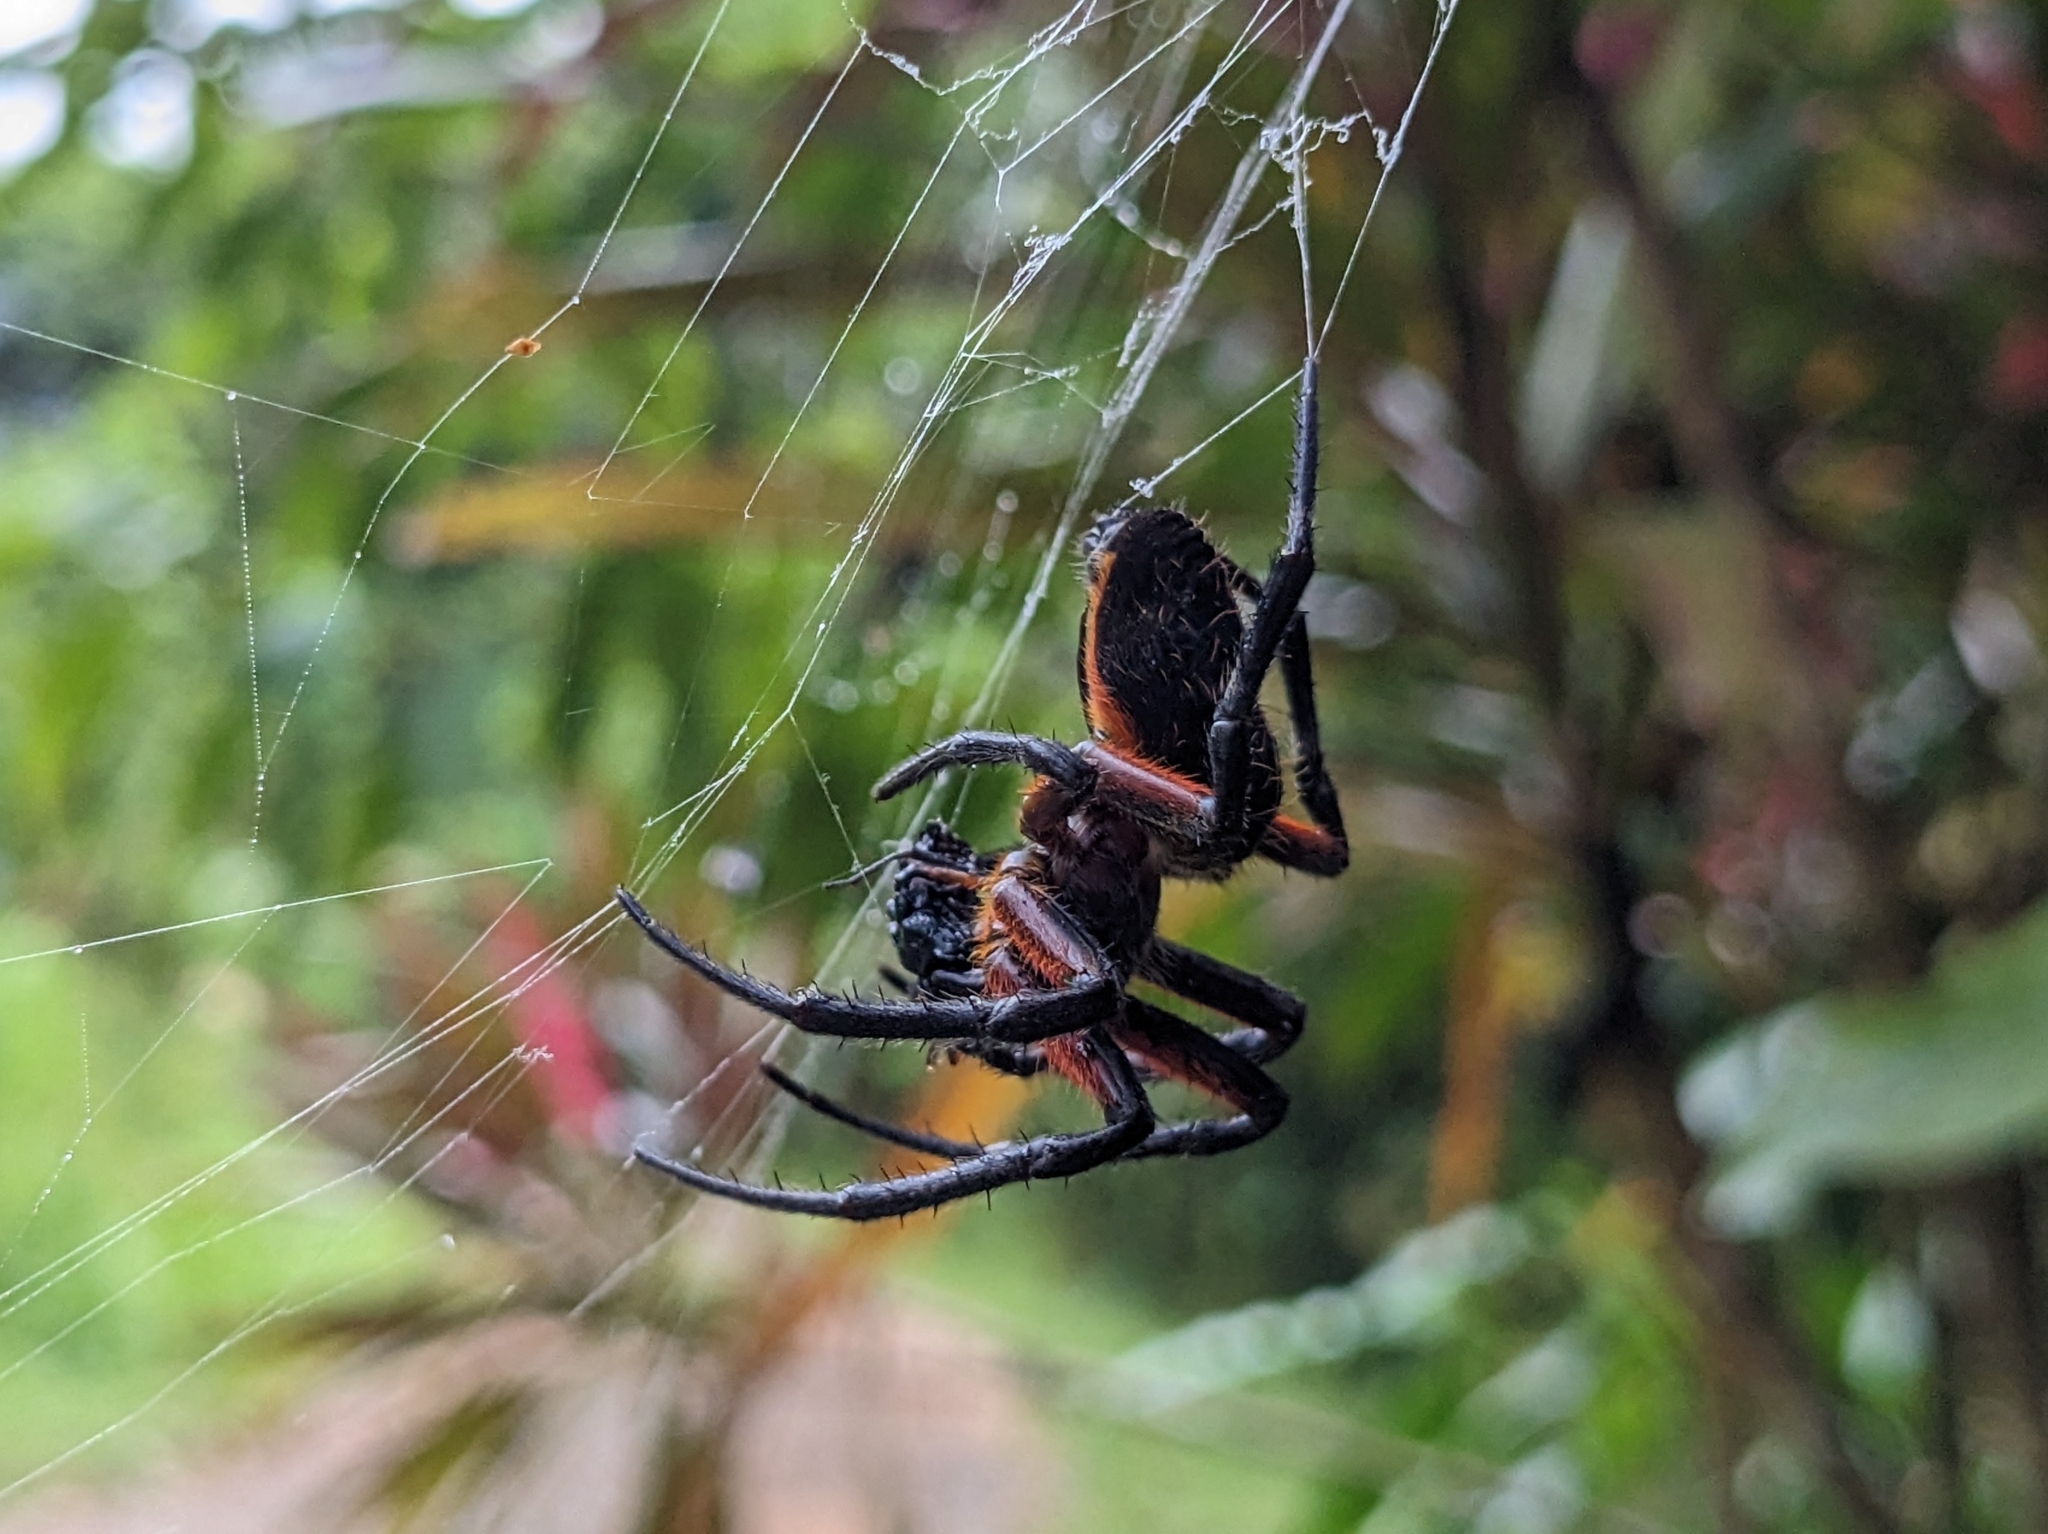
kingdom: Animalia
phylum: Arthropoda
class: Arachnida
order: Araneae
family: Araneidae
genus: Eriophora
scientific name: Eriophora fuliginea
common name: Orb weavers
